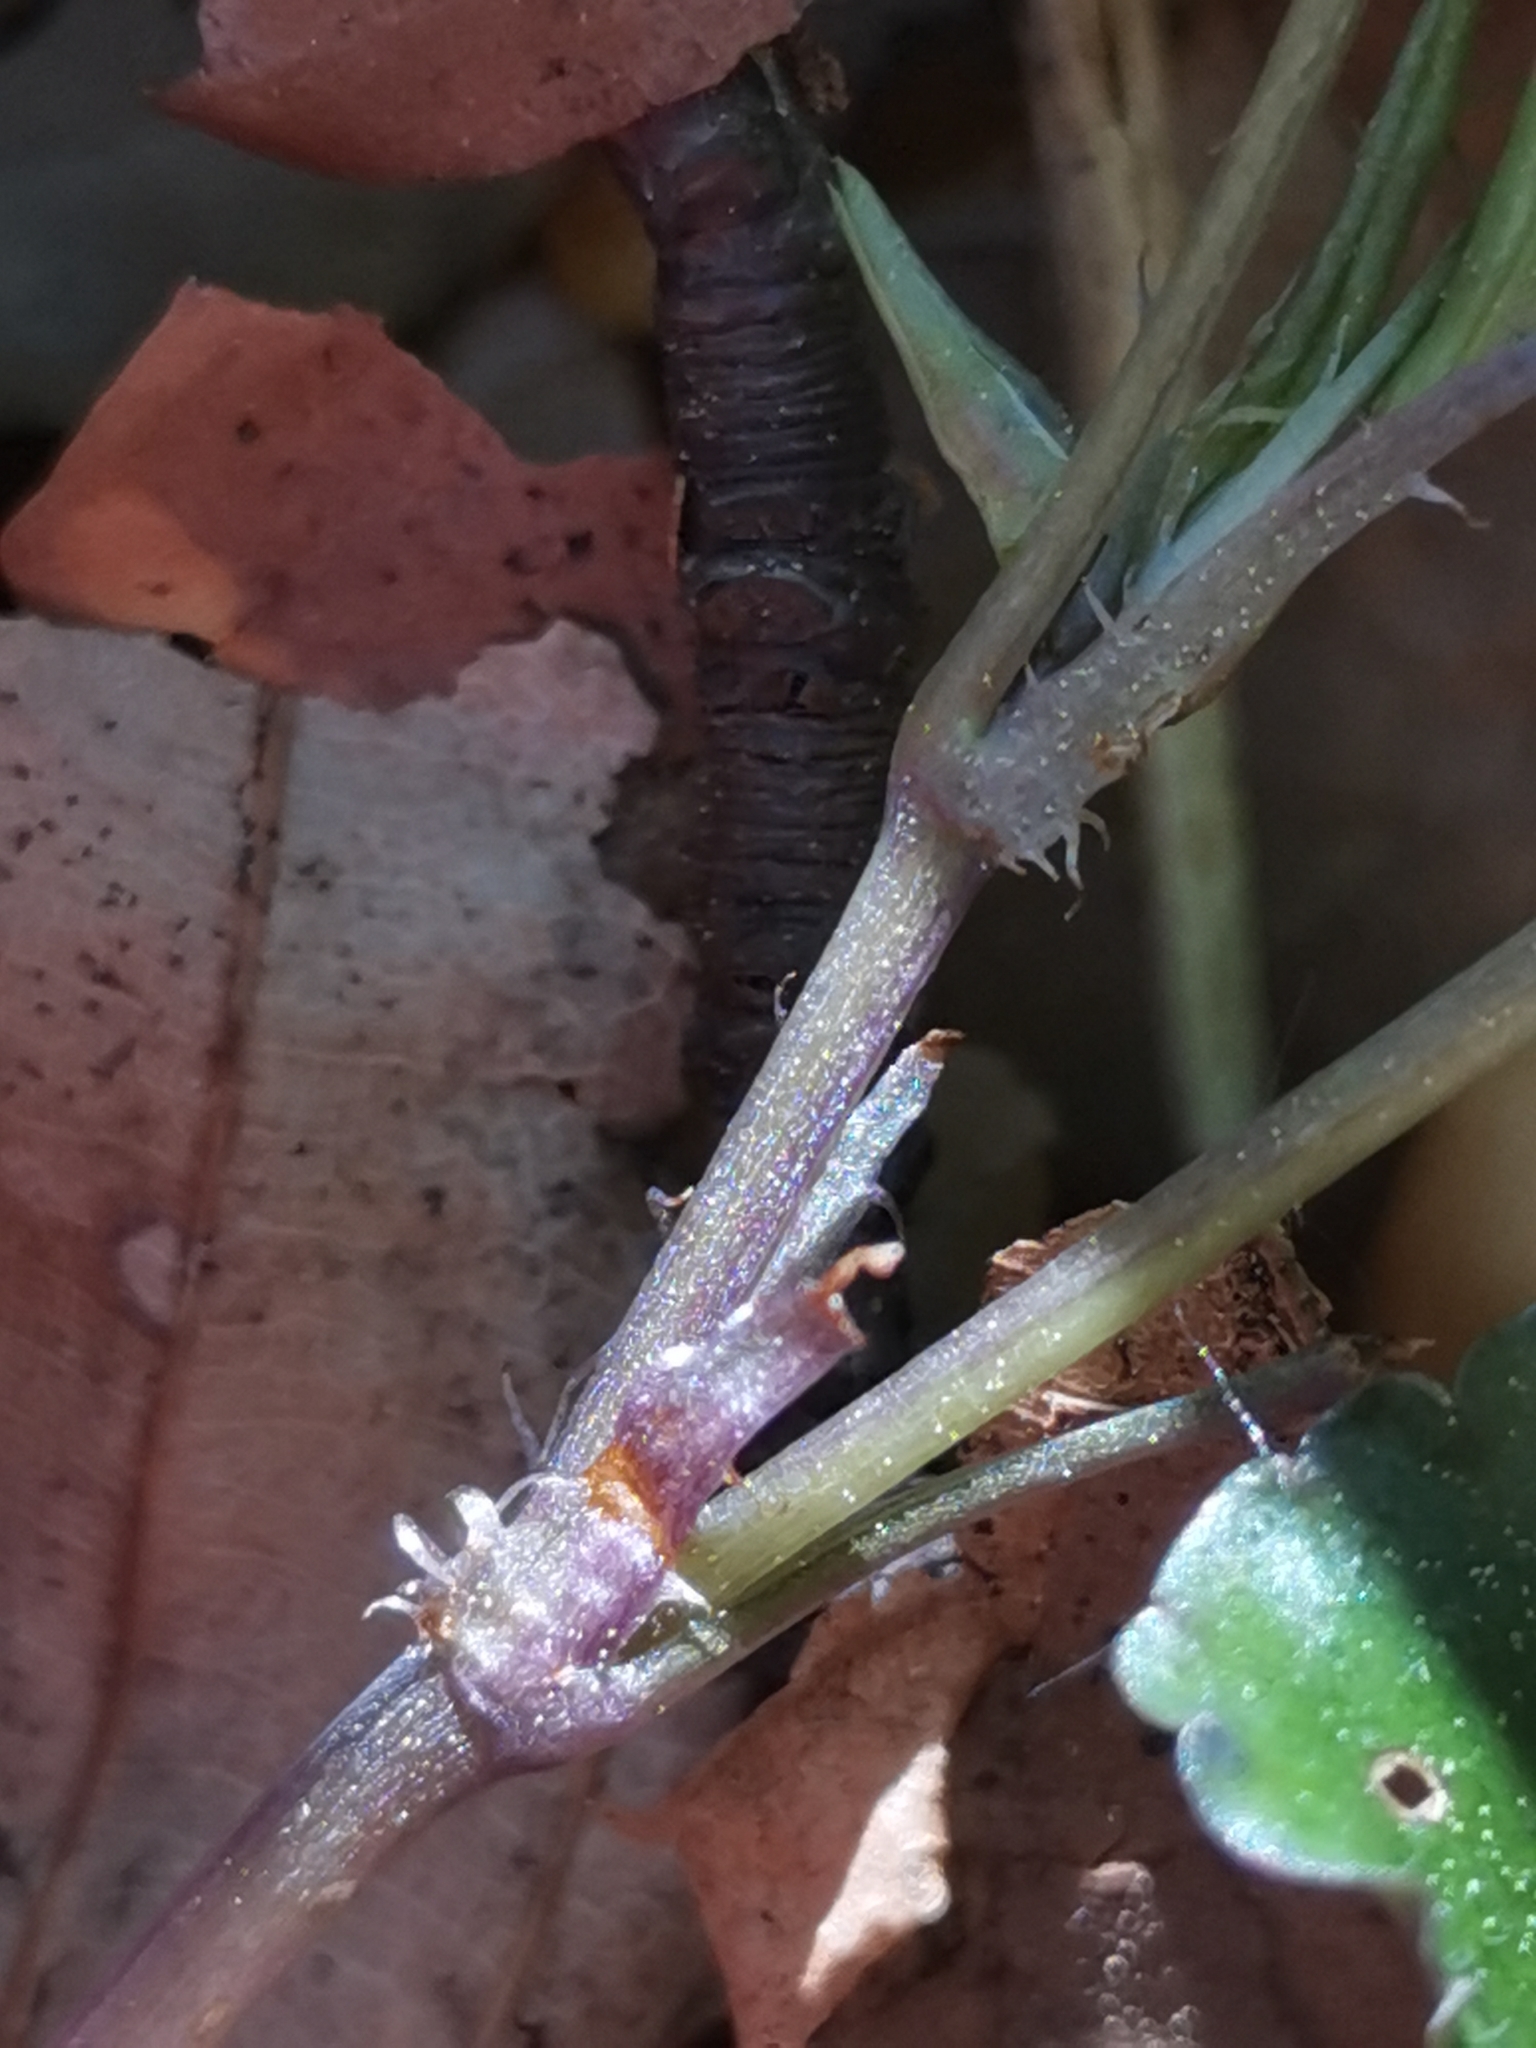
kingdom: Plantae
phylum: Tracheophyta
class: Magnoliopsida
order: Malpighiales
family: Violaceae
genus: Viola
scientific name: Viola reichenbachiana
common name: Early dog-violet
